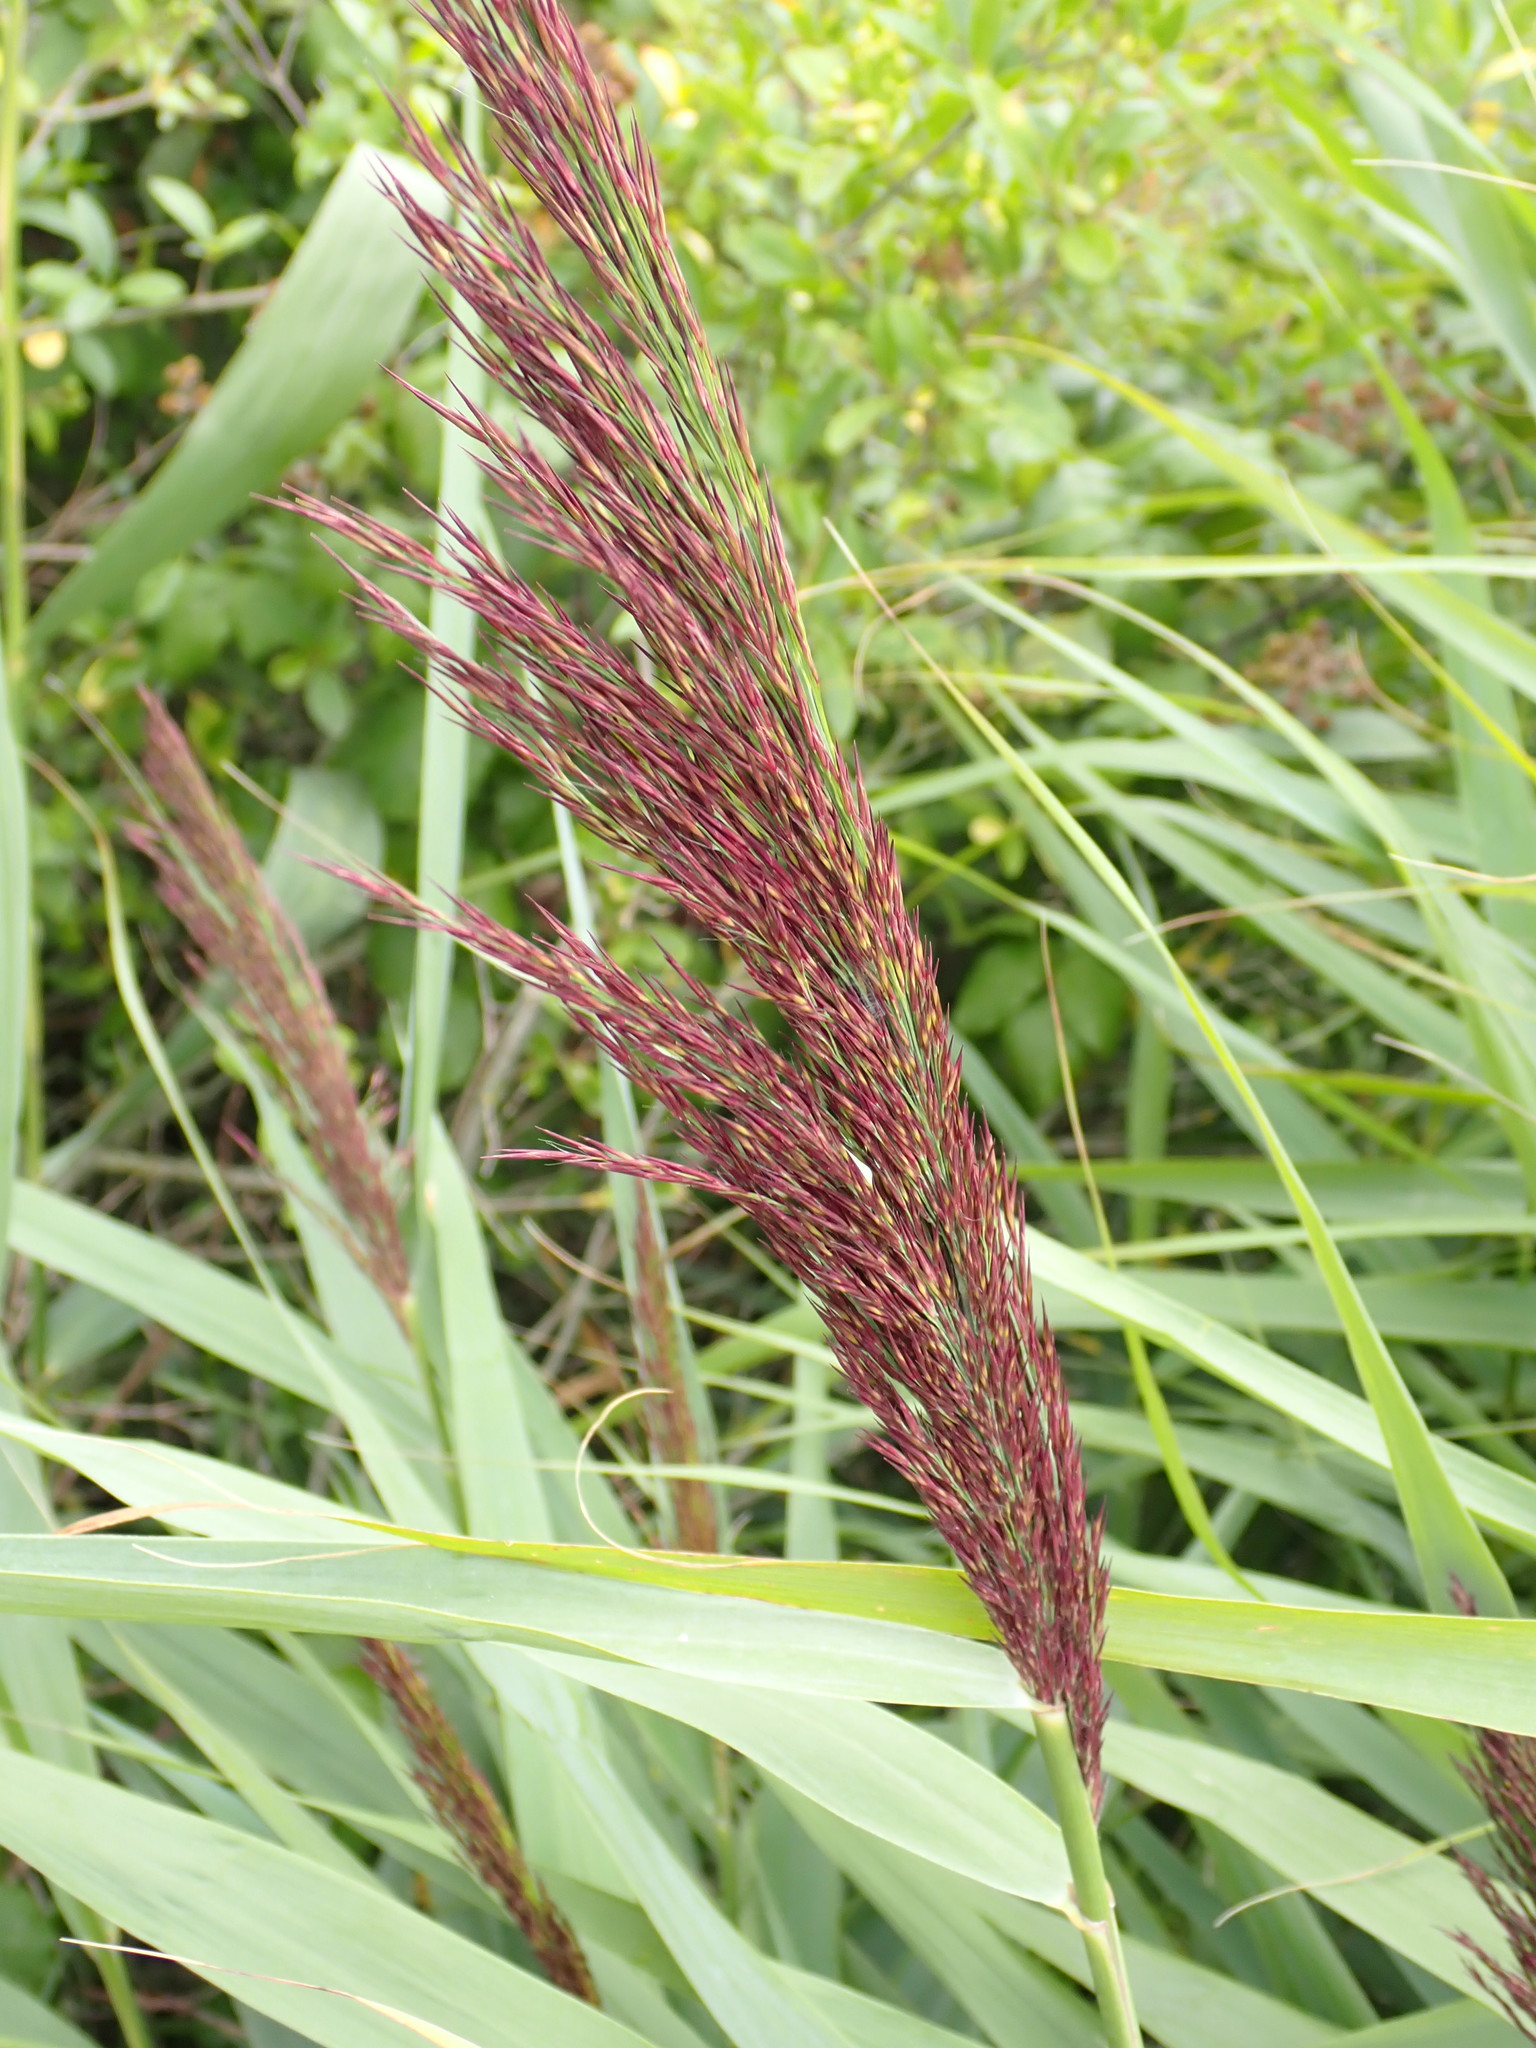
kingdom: Plantae
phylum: Tracheophyta
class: Liliopsida
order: Poales
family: Poaceae
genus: Phragmites
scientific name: Phragmites australis
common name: Common reed
